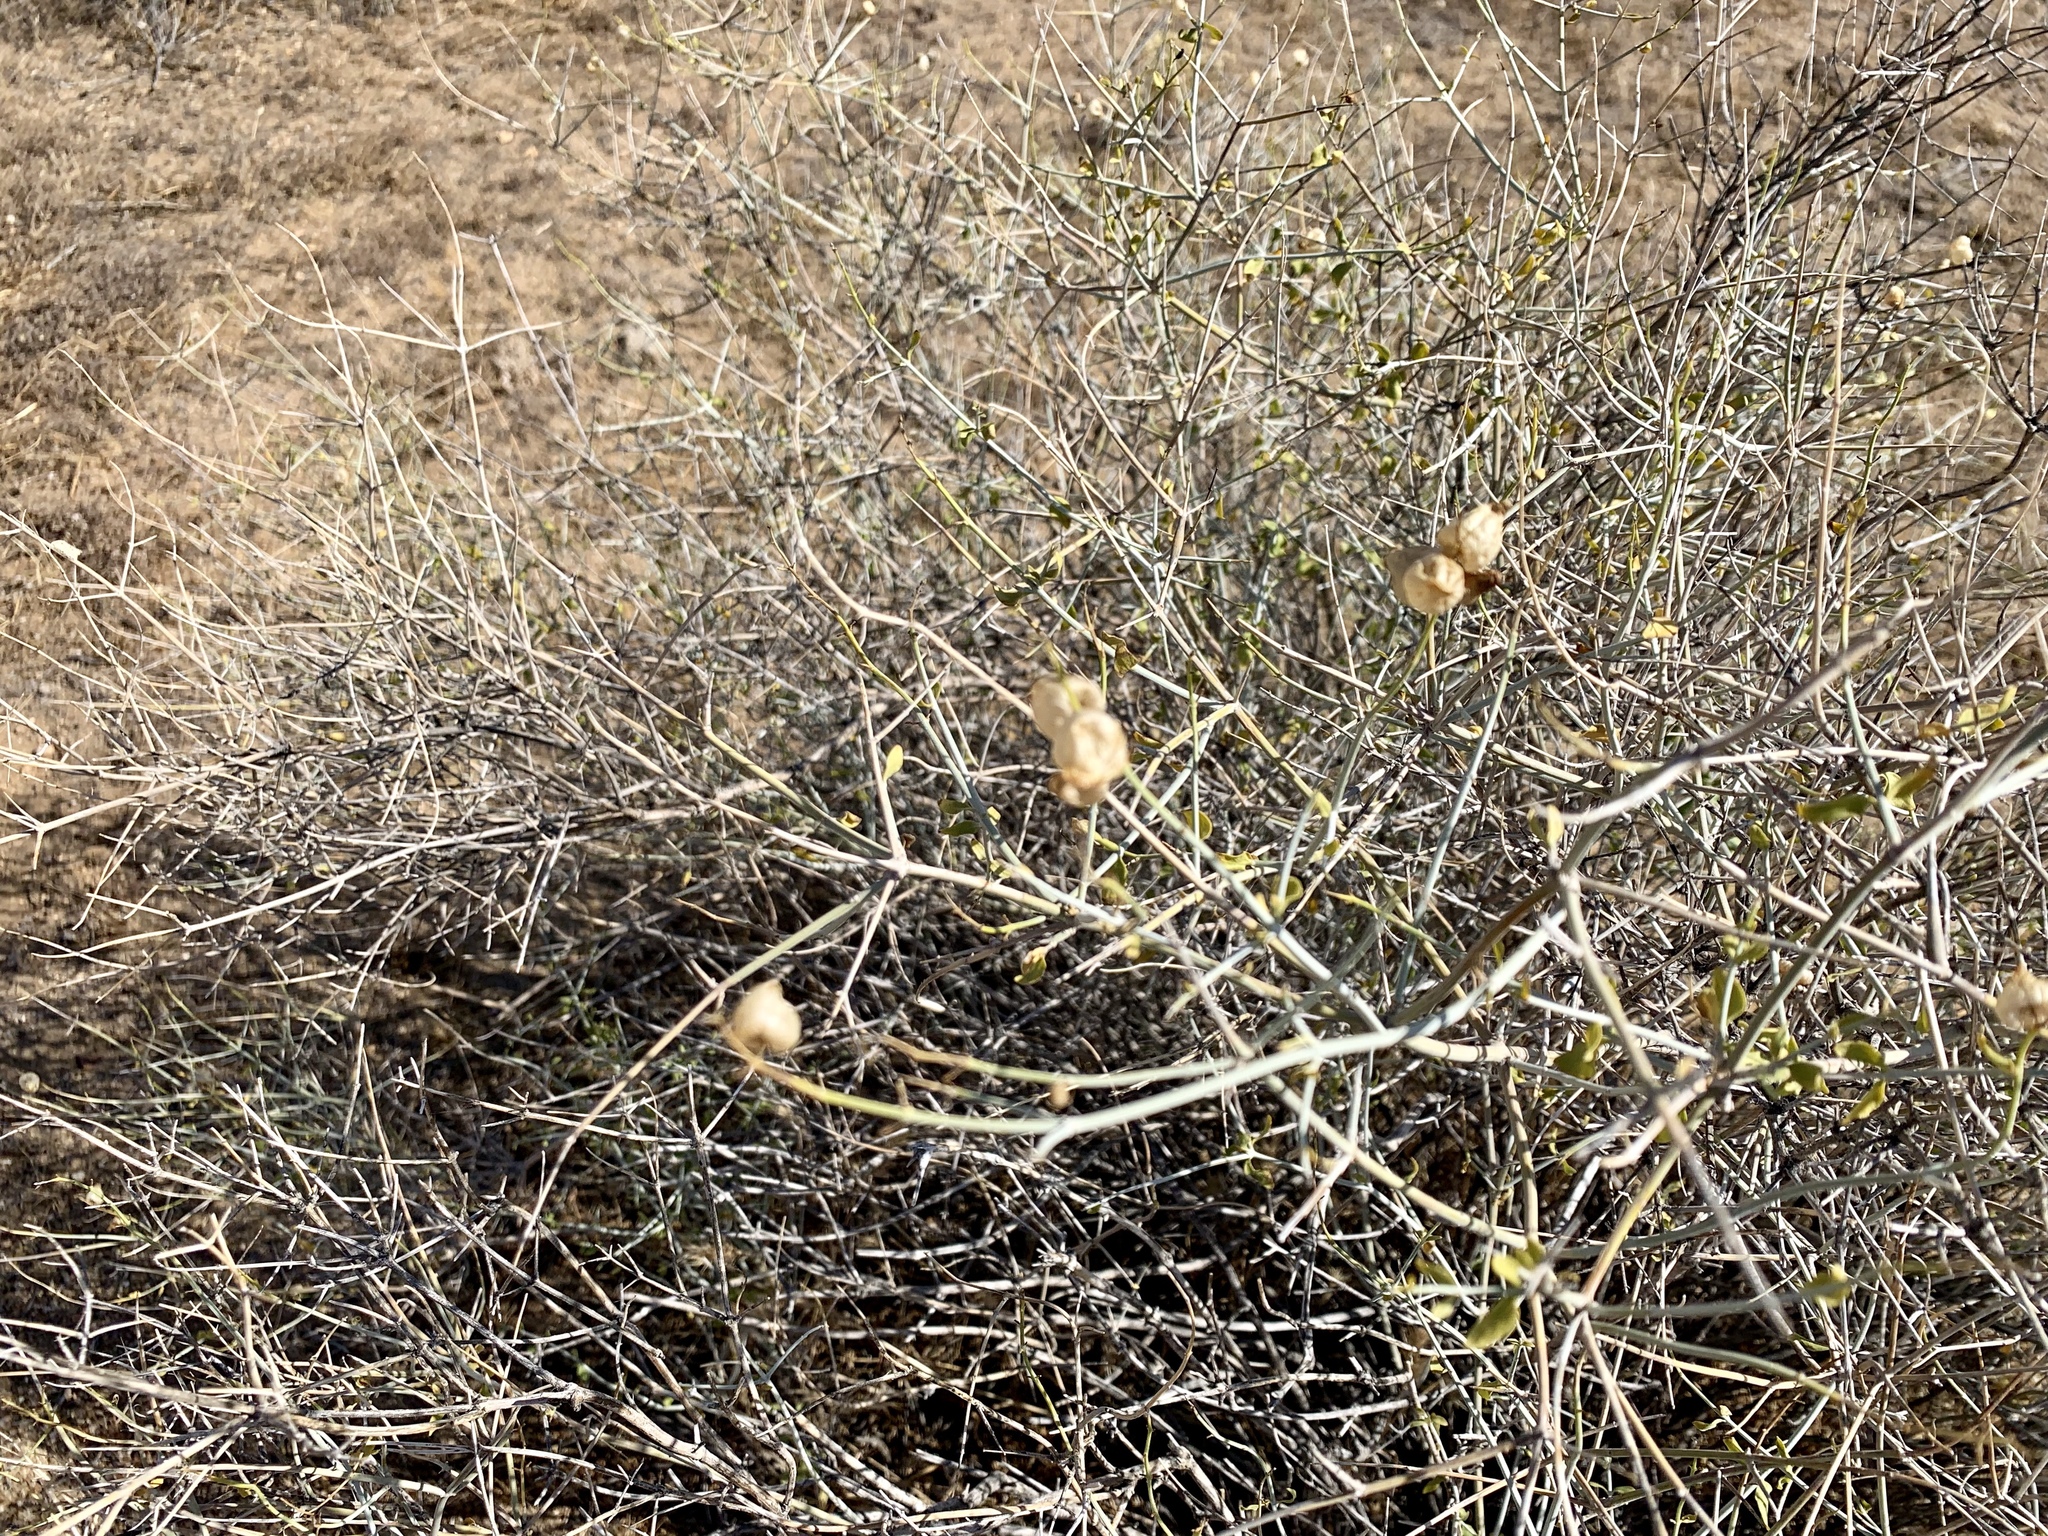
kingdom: Plantae
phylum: Tracheophyta
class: Magnoliopsida
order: Lamiales
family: Lamiaceae
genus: Scutellaria
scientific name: Scutellaria mexicana
